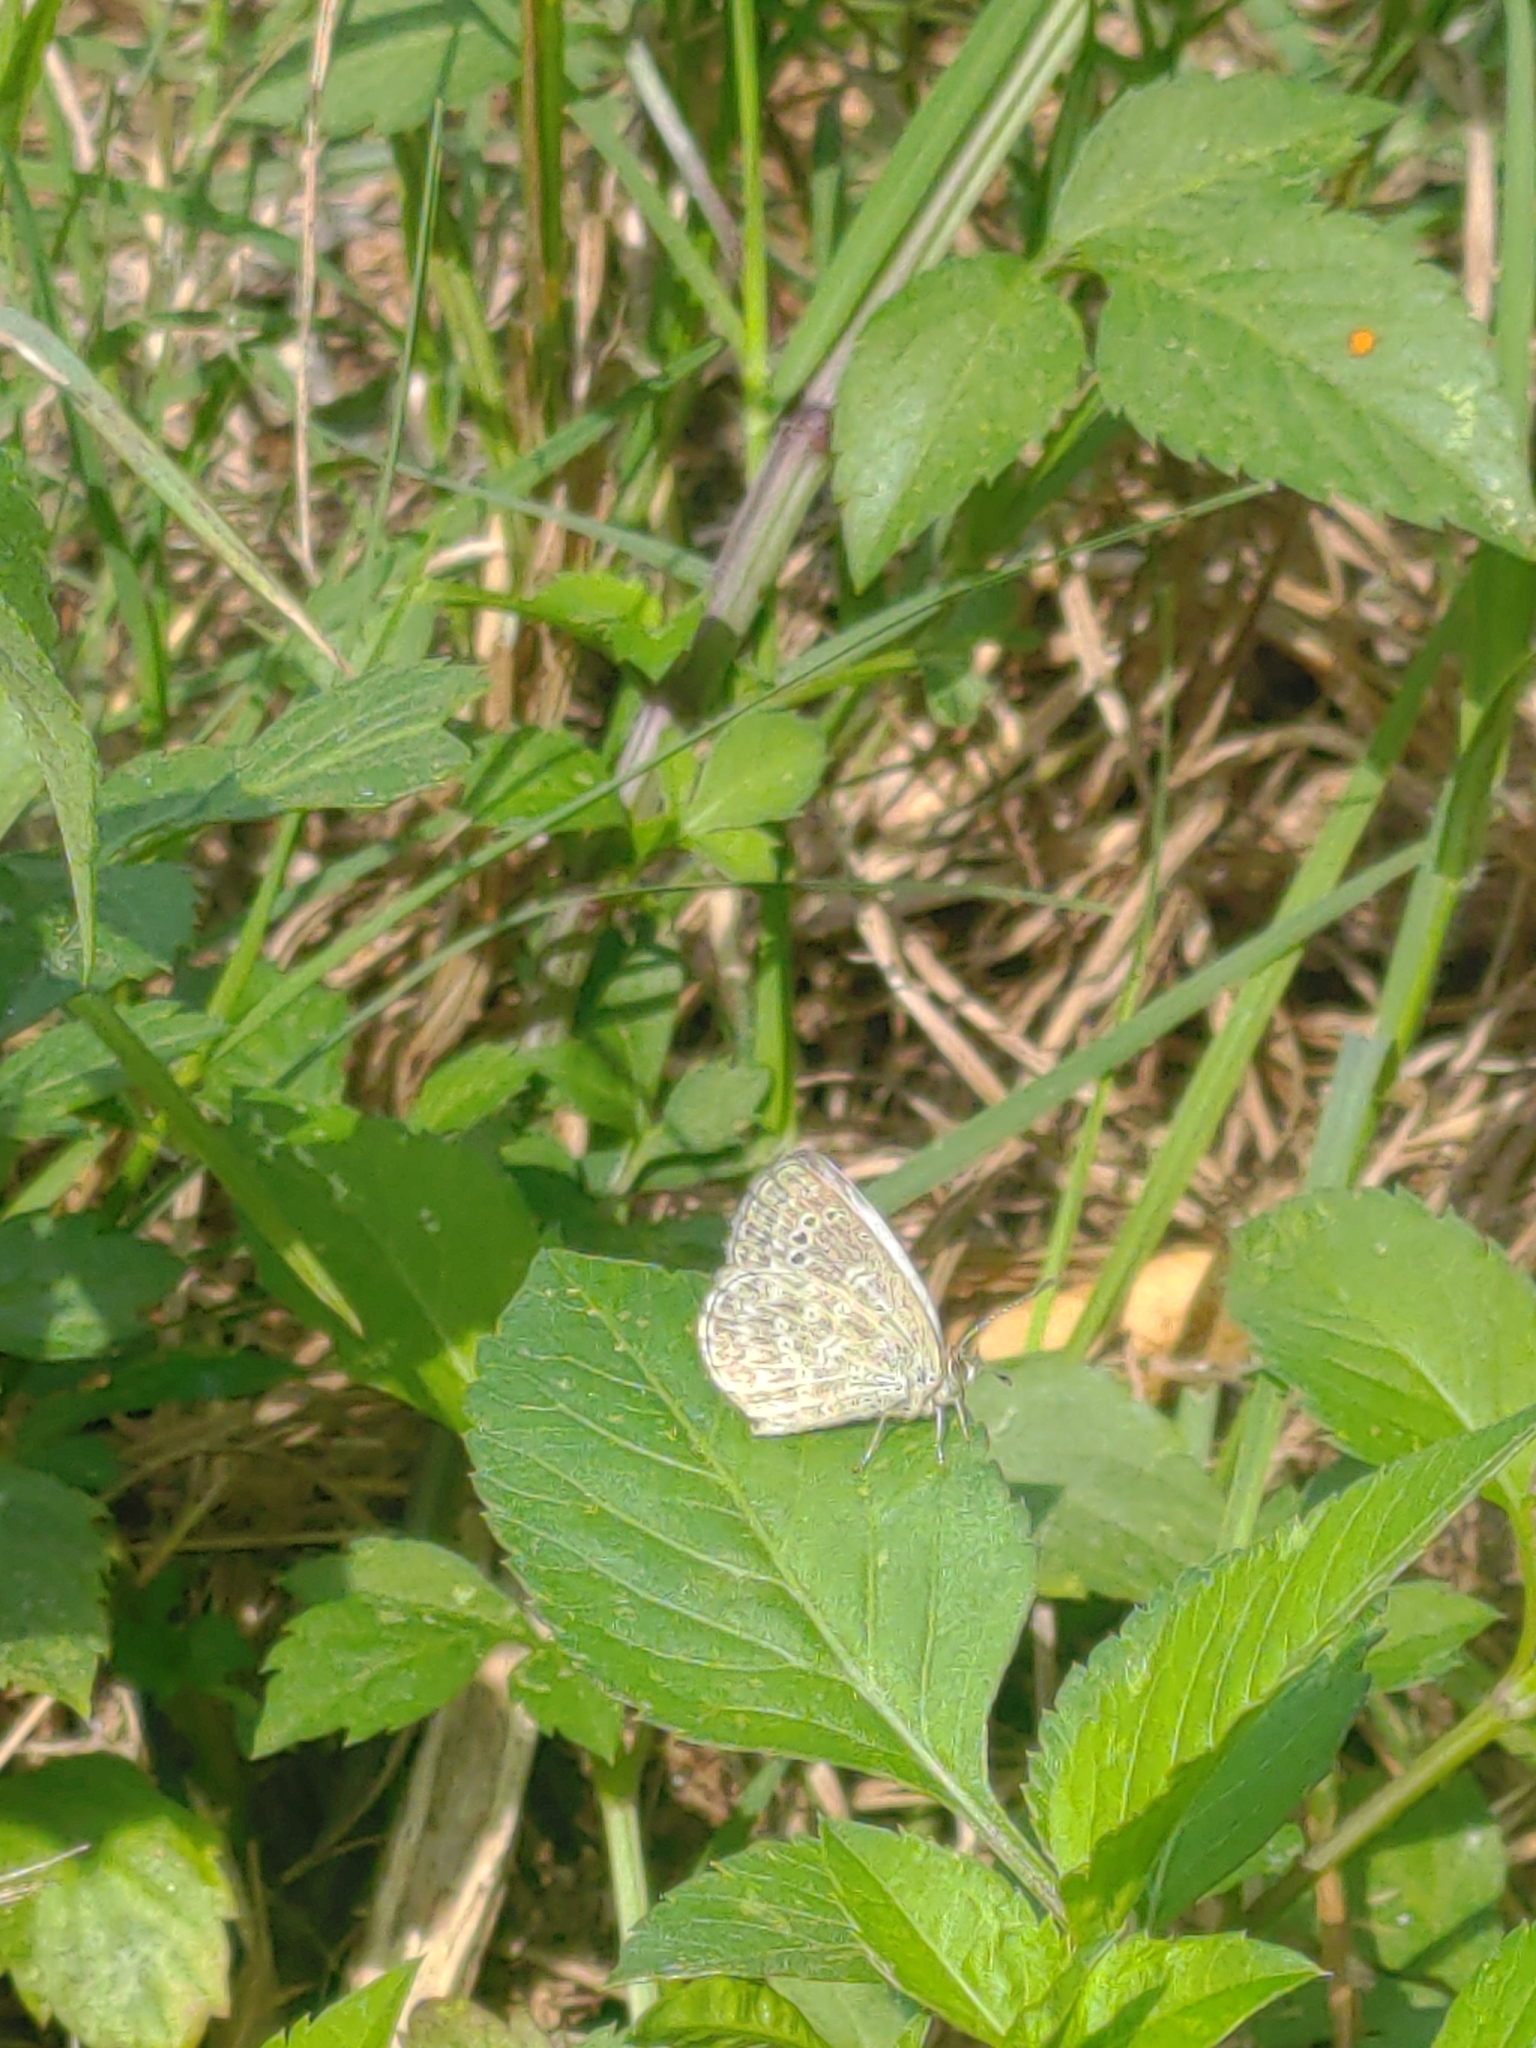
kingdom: Animalia
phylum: Arthropoda
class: Insecta
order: Lepidoptera
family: Lycaenidae
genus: Pseudozizeeria
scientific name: Pseudozizeeria maha
